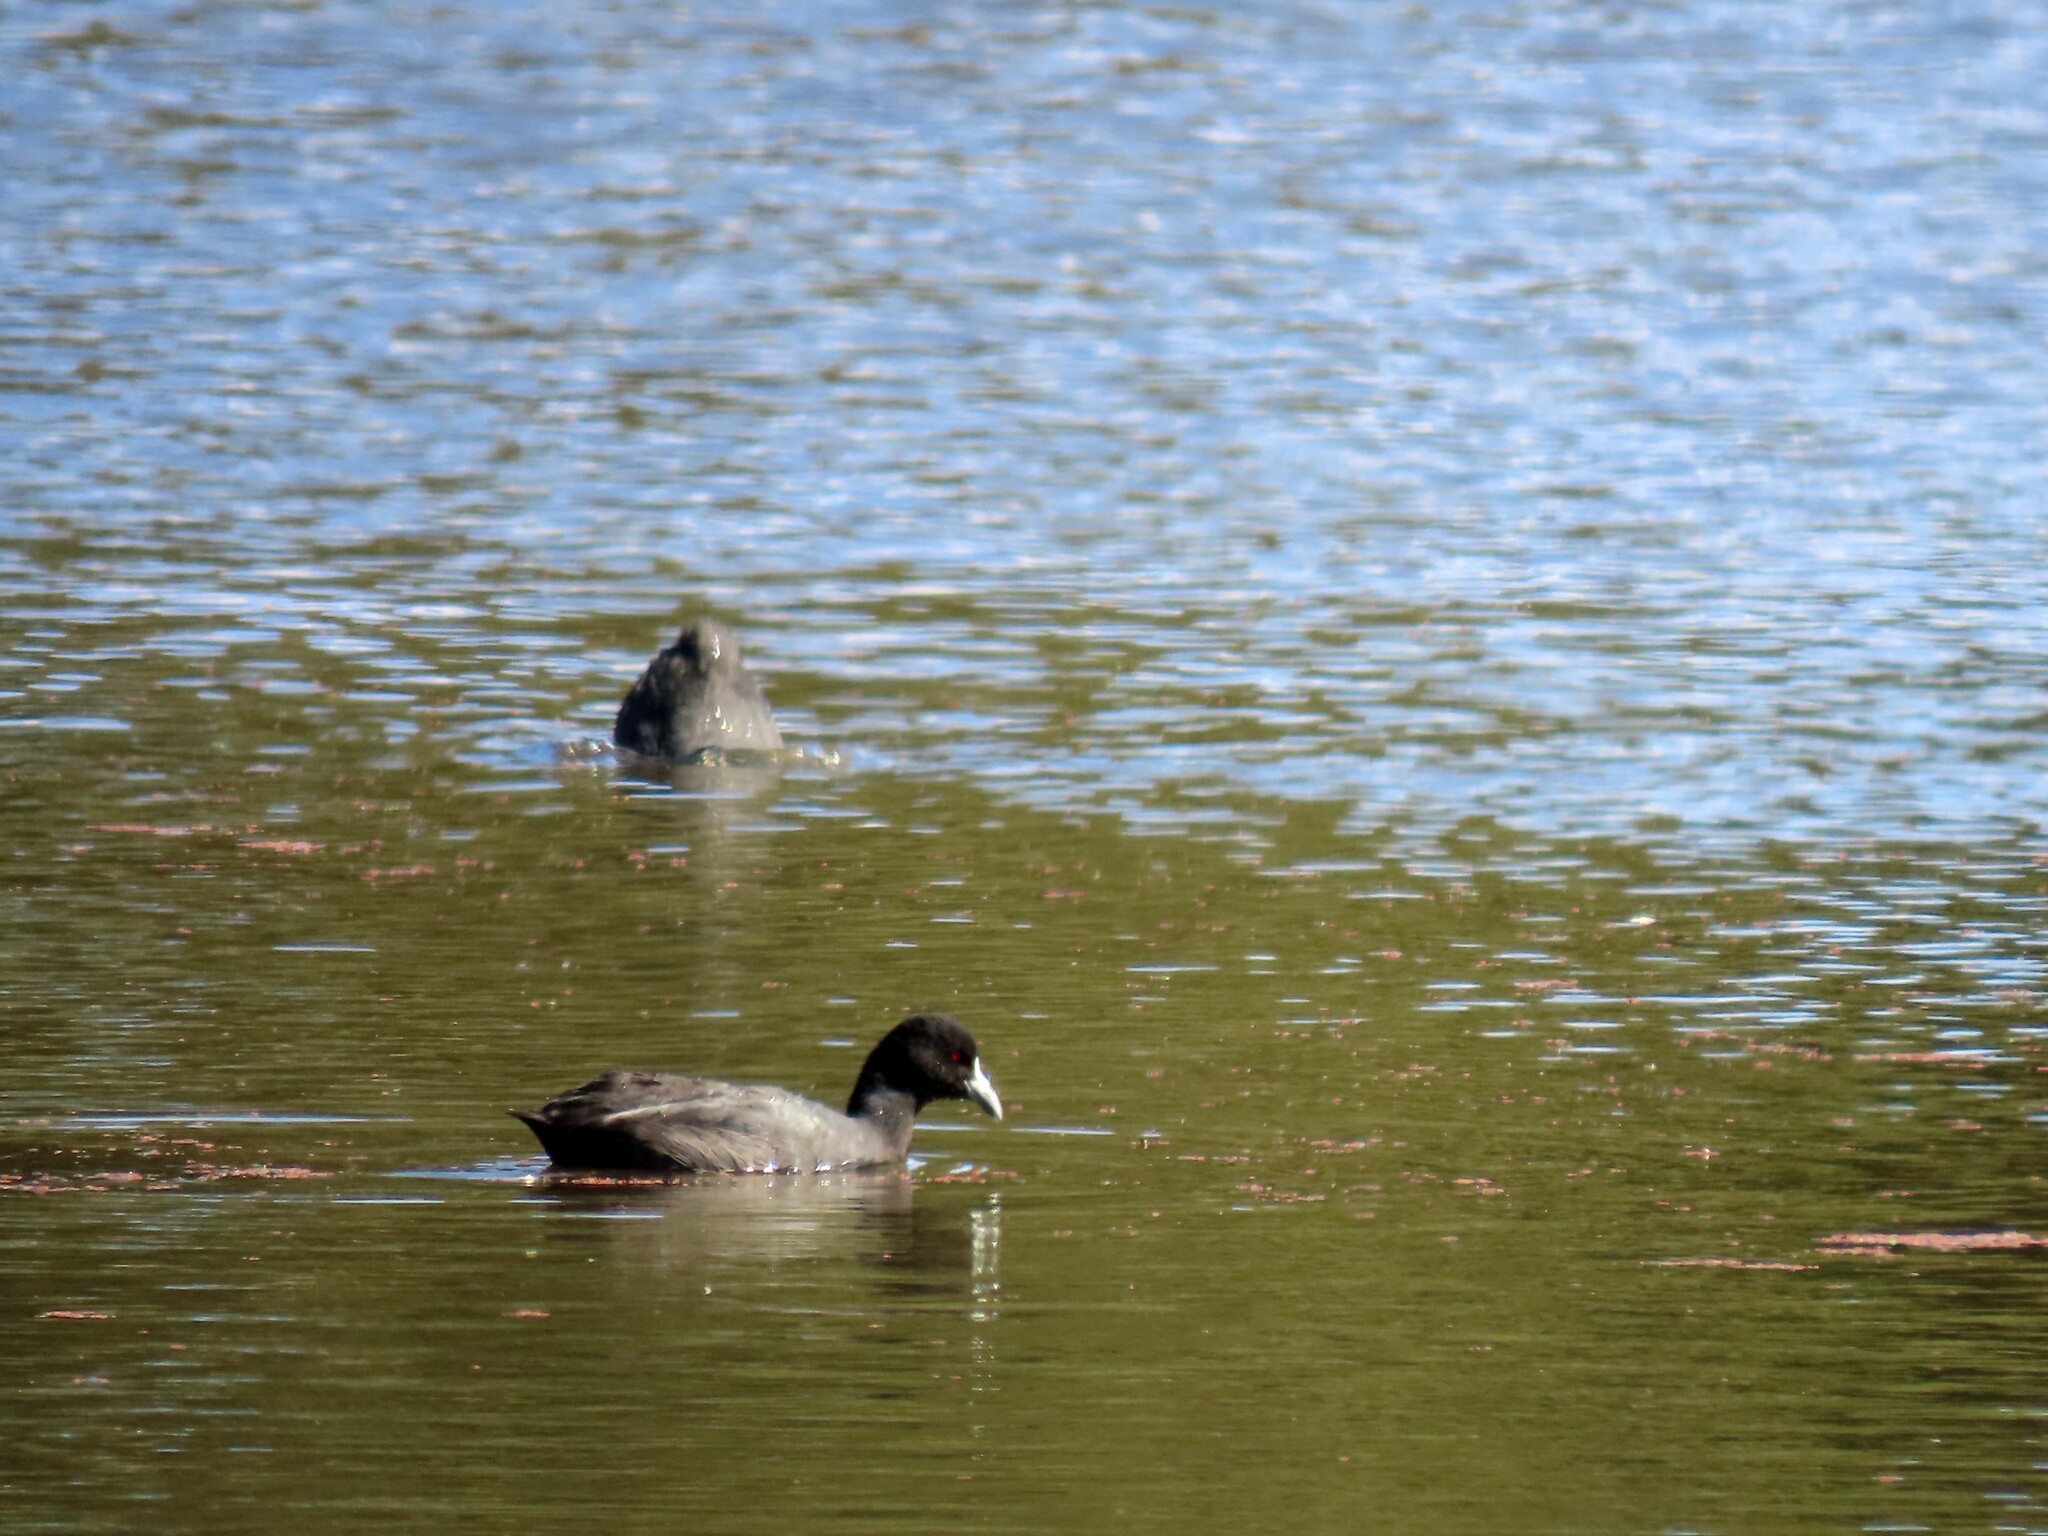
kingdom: Animalia
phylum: Chordata
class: Aves
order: Gruiformes
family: Rallidae
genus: Fulica
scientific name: Fulica atra
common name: Eurasian coot
